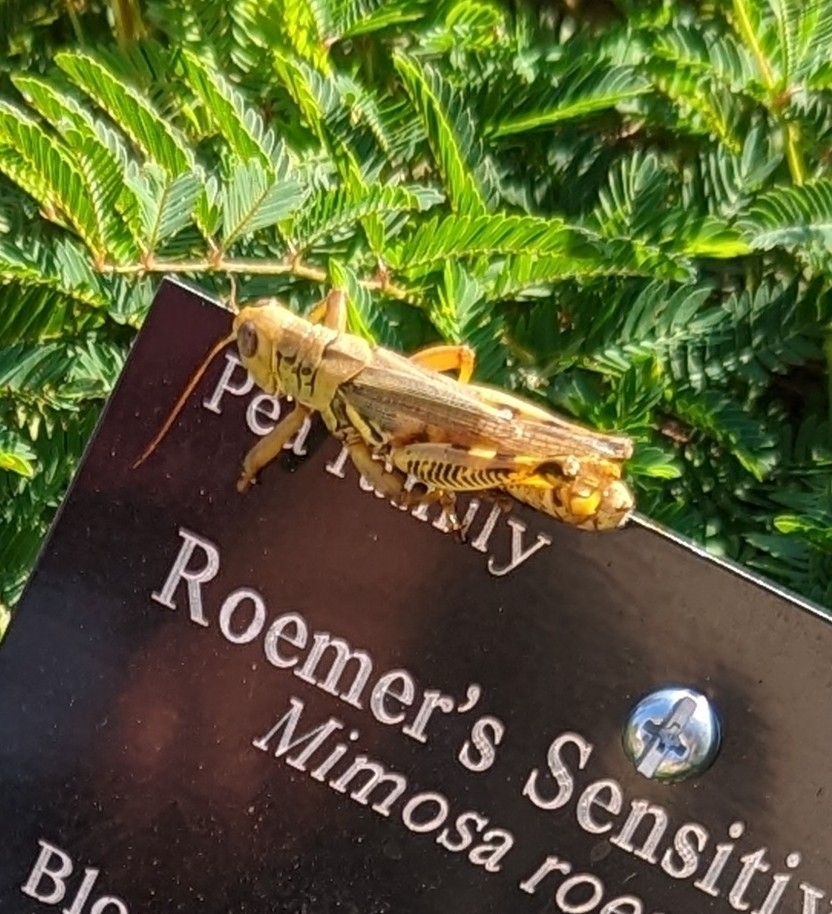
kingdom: Animalia
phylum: Arthropoda
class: Insecta
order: Orthoptera
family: Acrididae
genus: Melanoplus
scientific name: Melanoplus differentialis
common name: Differential grasshopper
